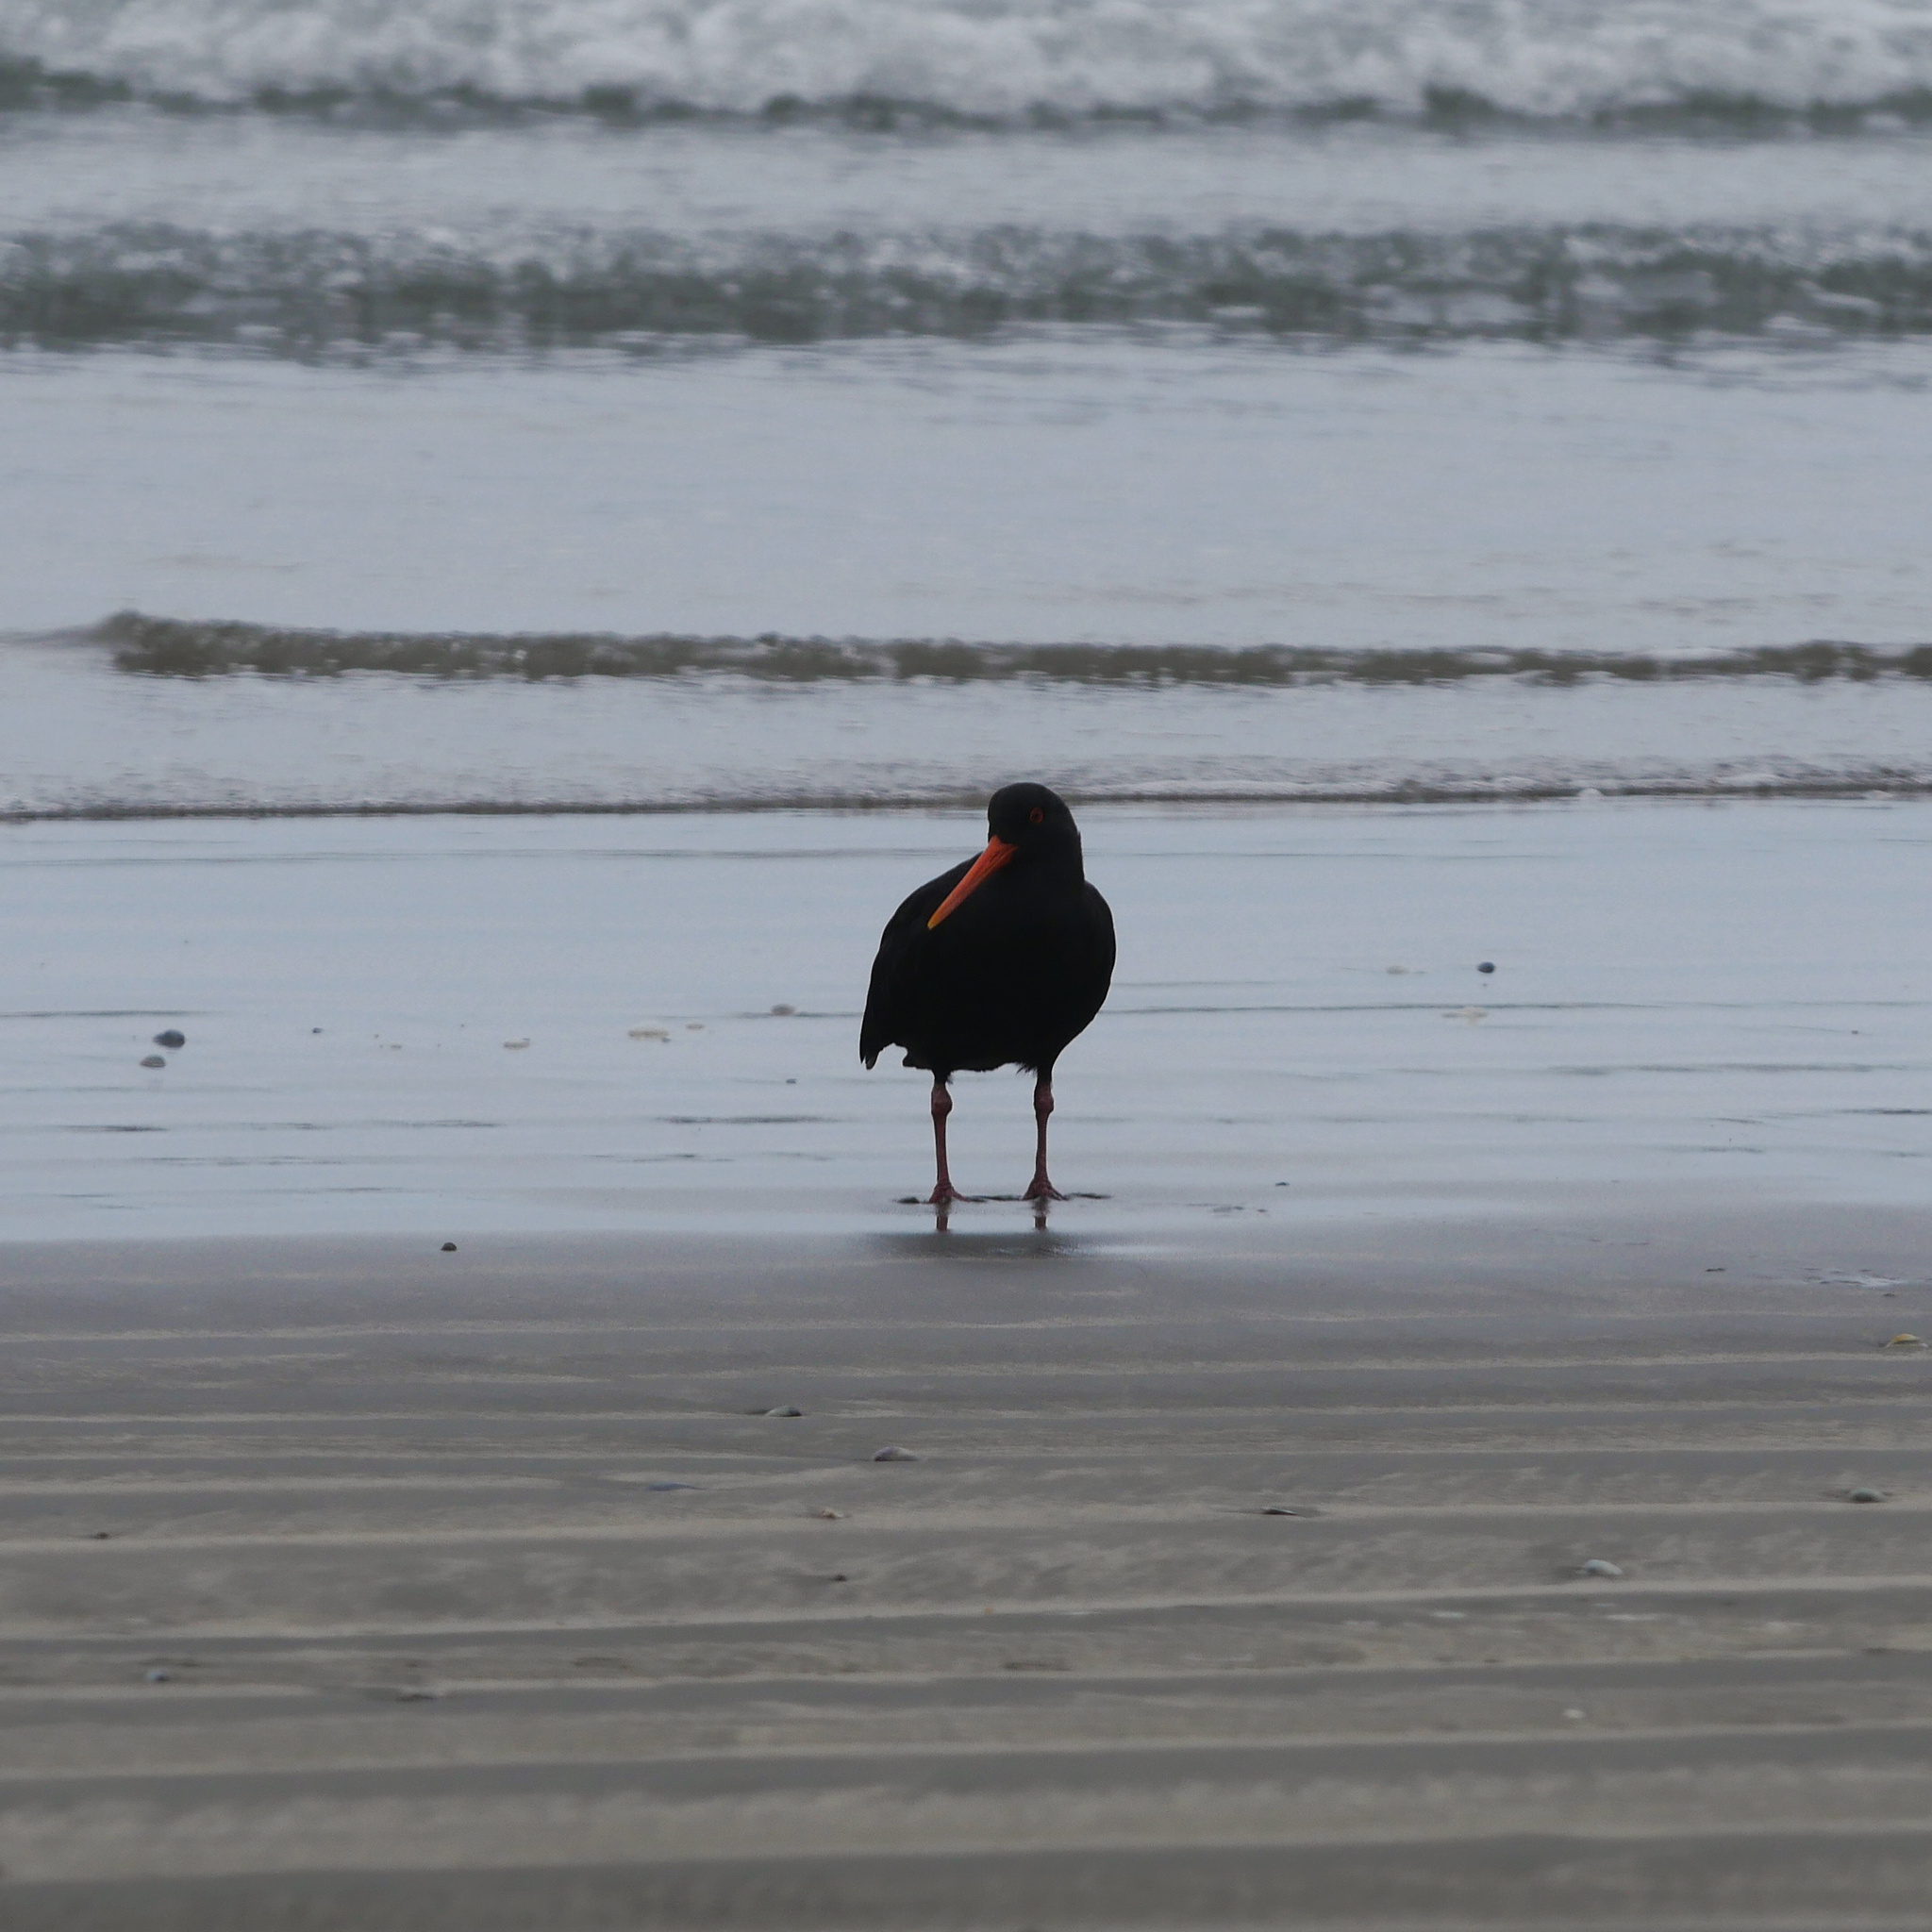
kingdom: Animalia
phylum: Chordata
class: Aves
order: Charadriiformes
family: Haematopodidae
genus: Haematopus
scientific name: Haematopus unicolor
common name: Variable oystercatcher
